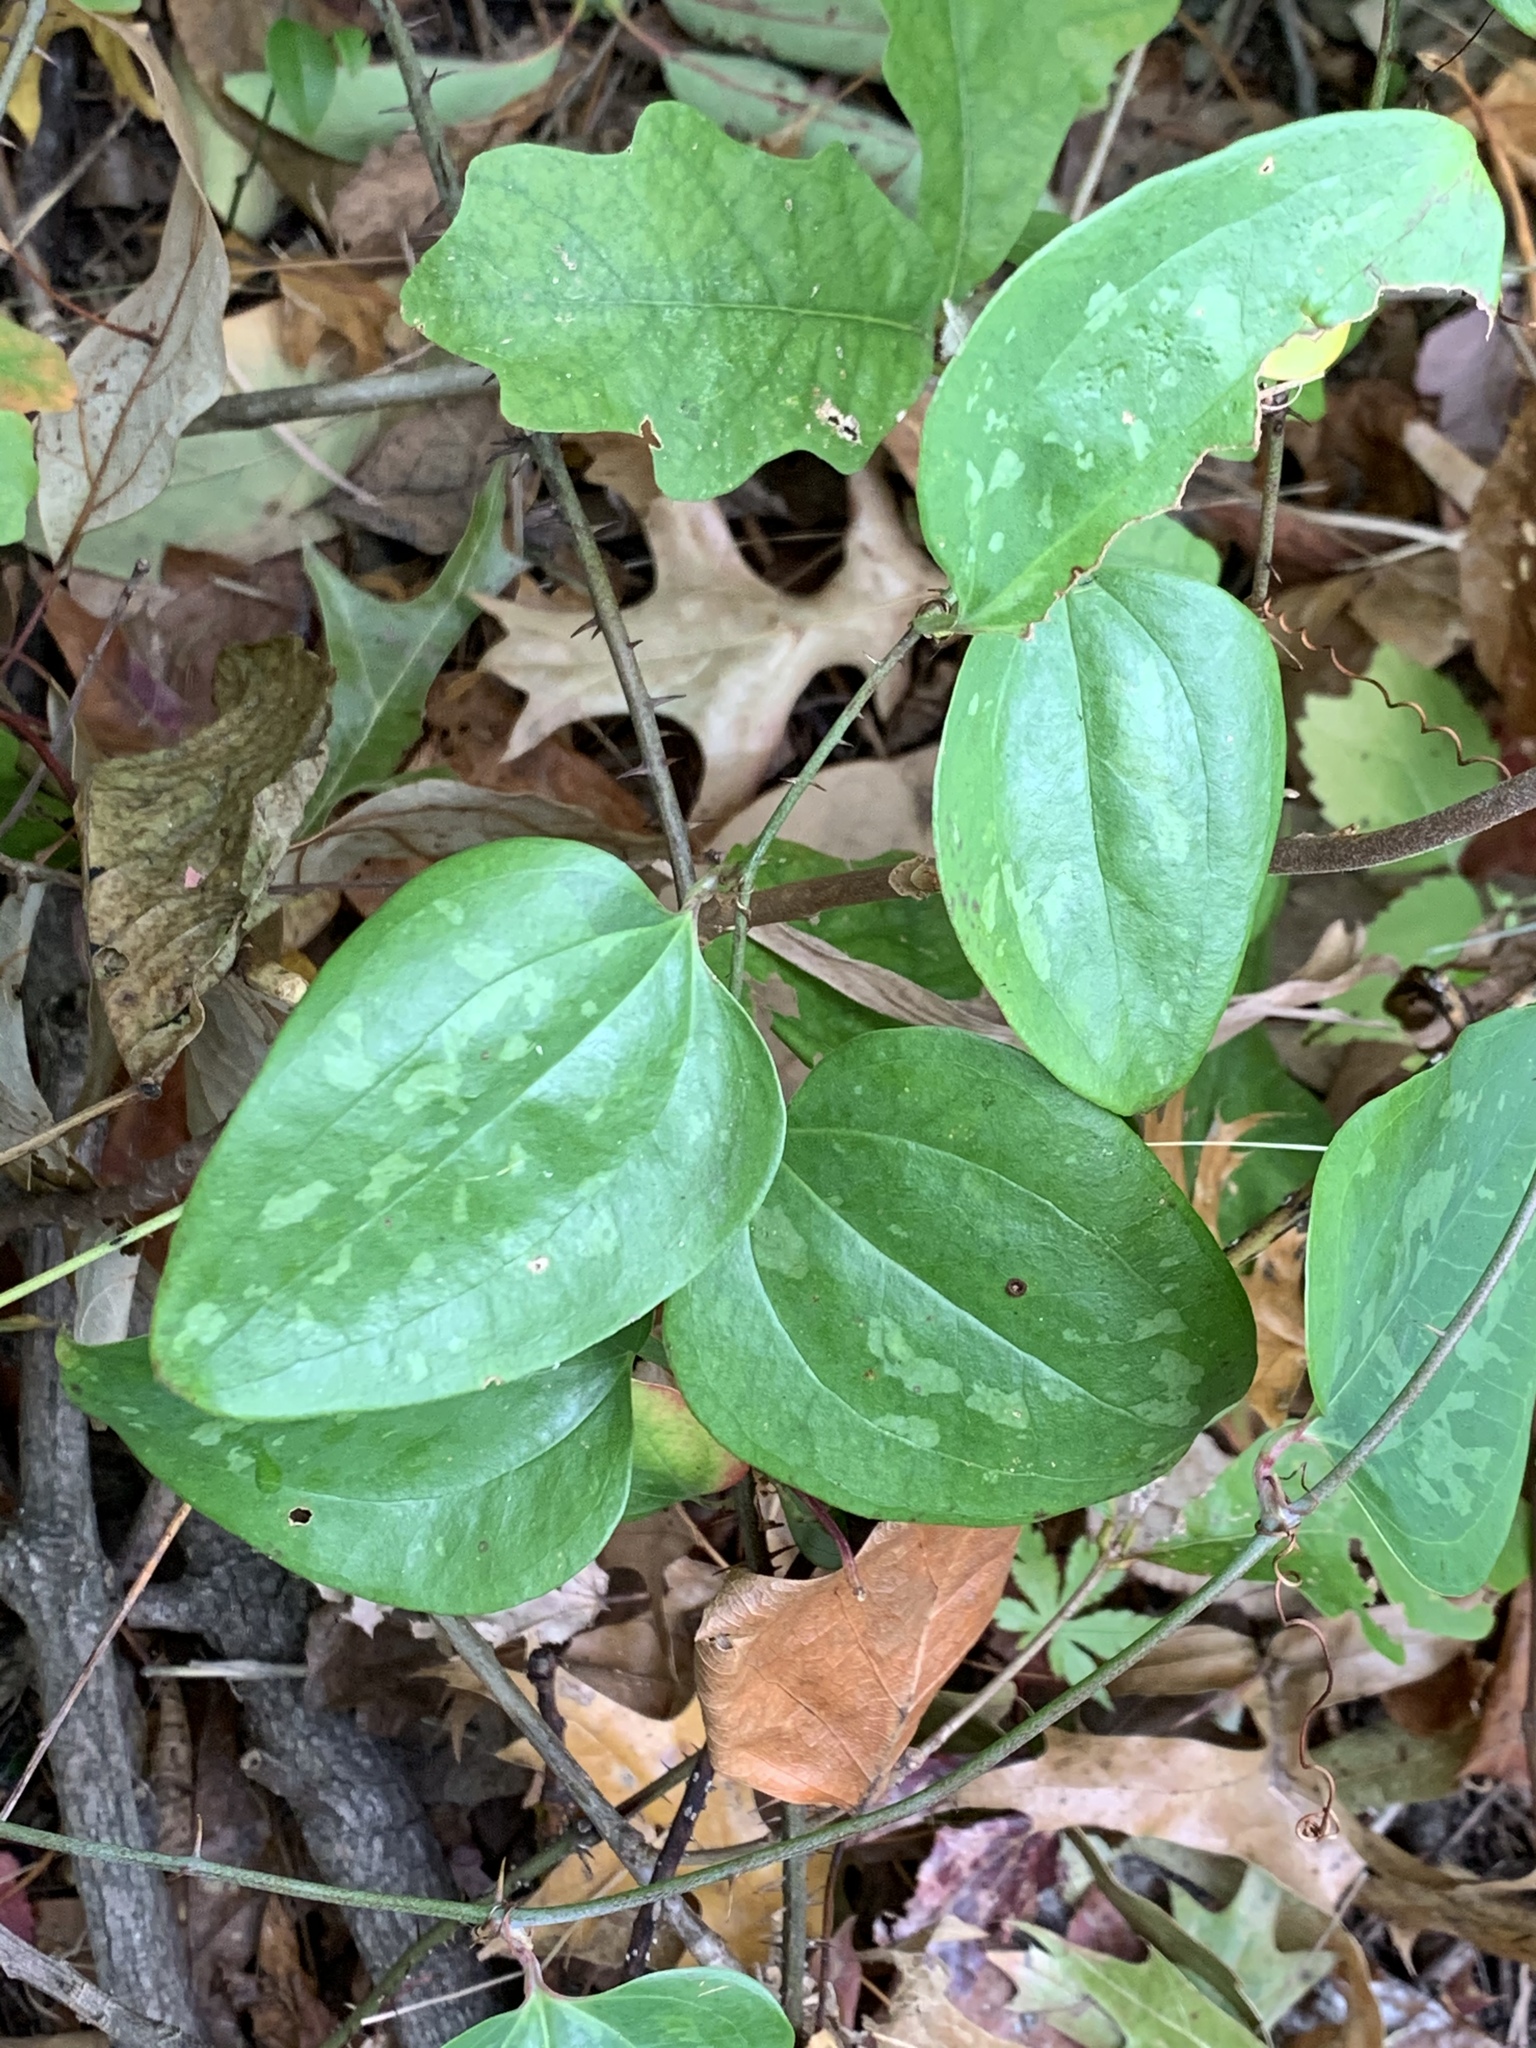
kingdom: Plantae
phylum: Tracheophyta
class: Liliopsida
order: Liliales
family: Smilacaceae
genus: Smilax
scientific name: Smilax glauca
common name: Cat greenbrier
